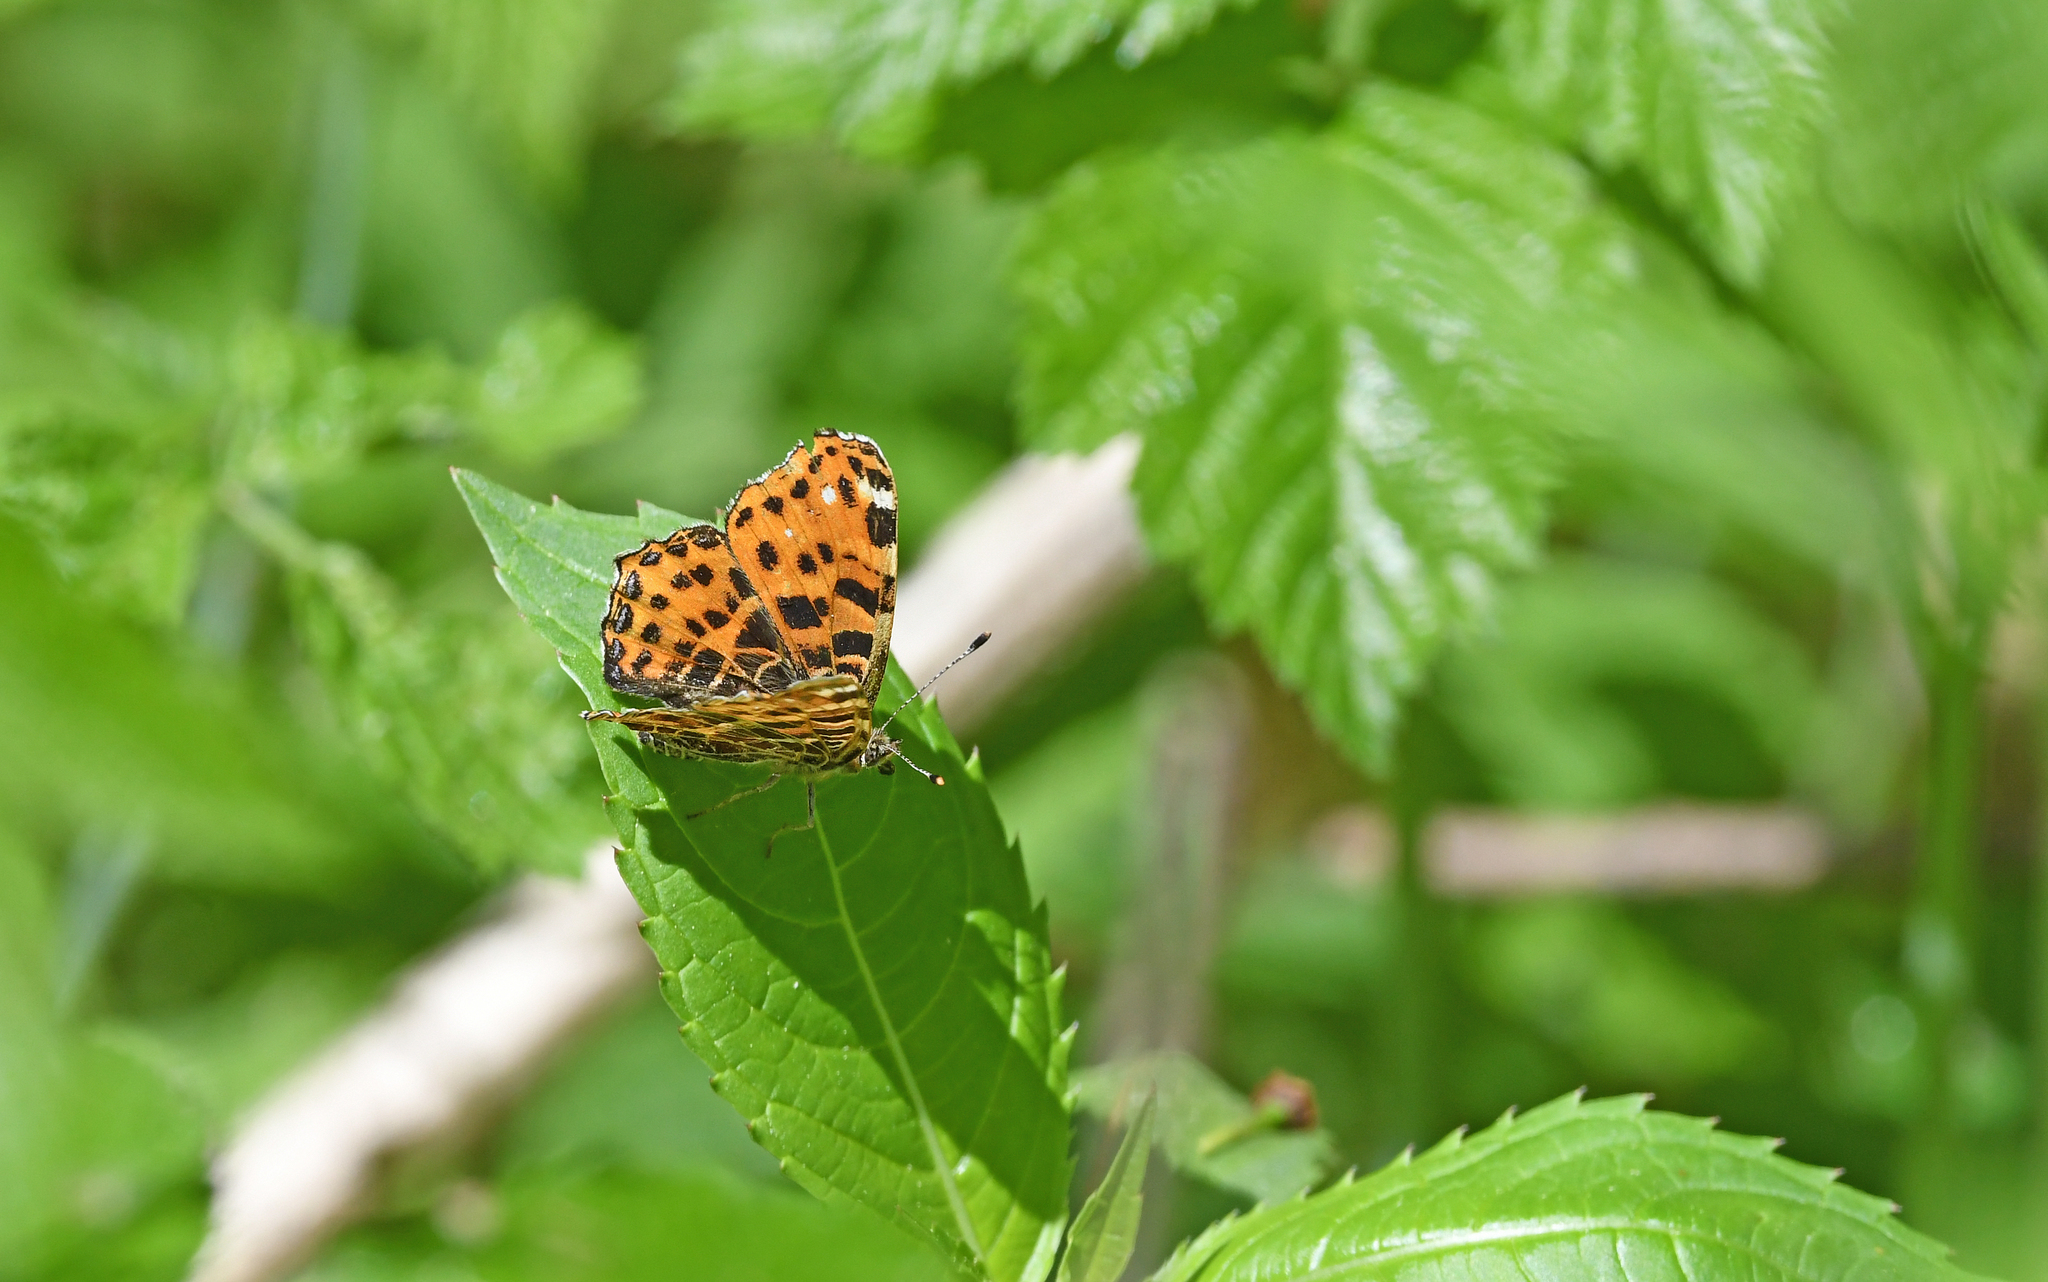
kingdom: Animalia
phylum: Arthropoda
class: Insecta
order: Lepidoptera
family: Nymphalidae
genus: Araschnia
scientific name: Araschnia levana
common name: Map butterfly
